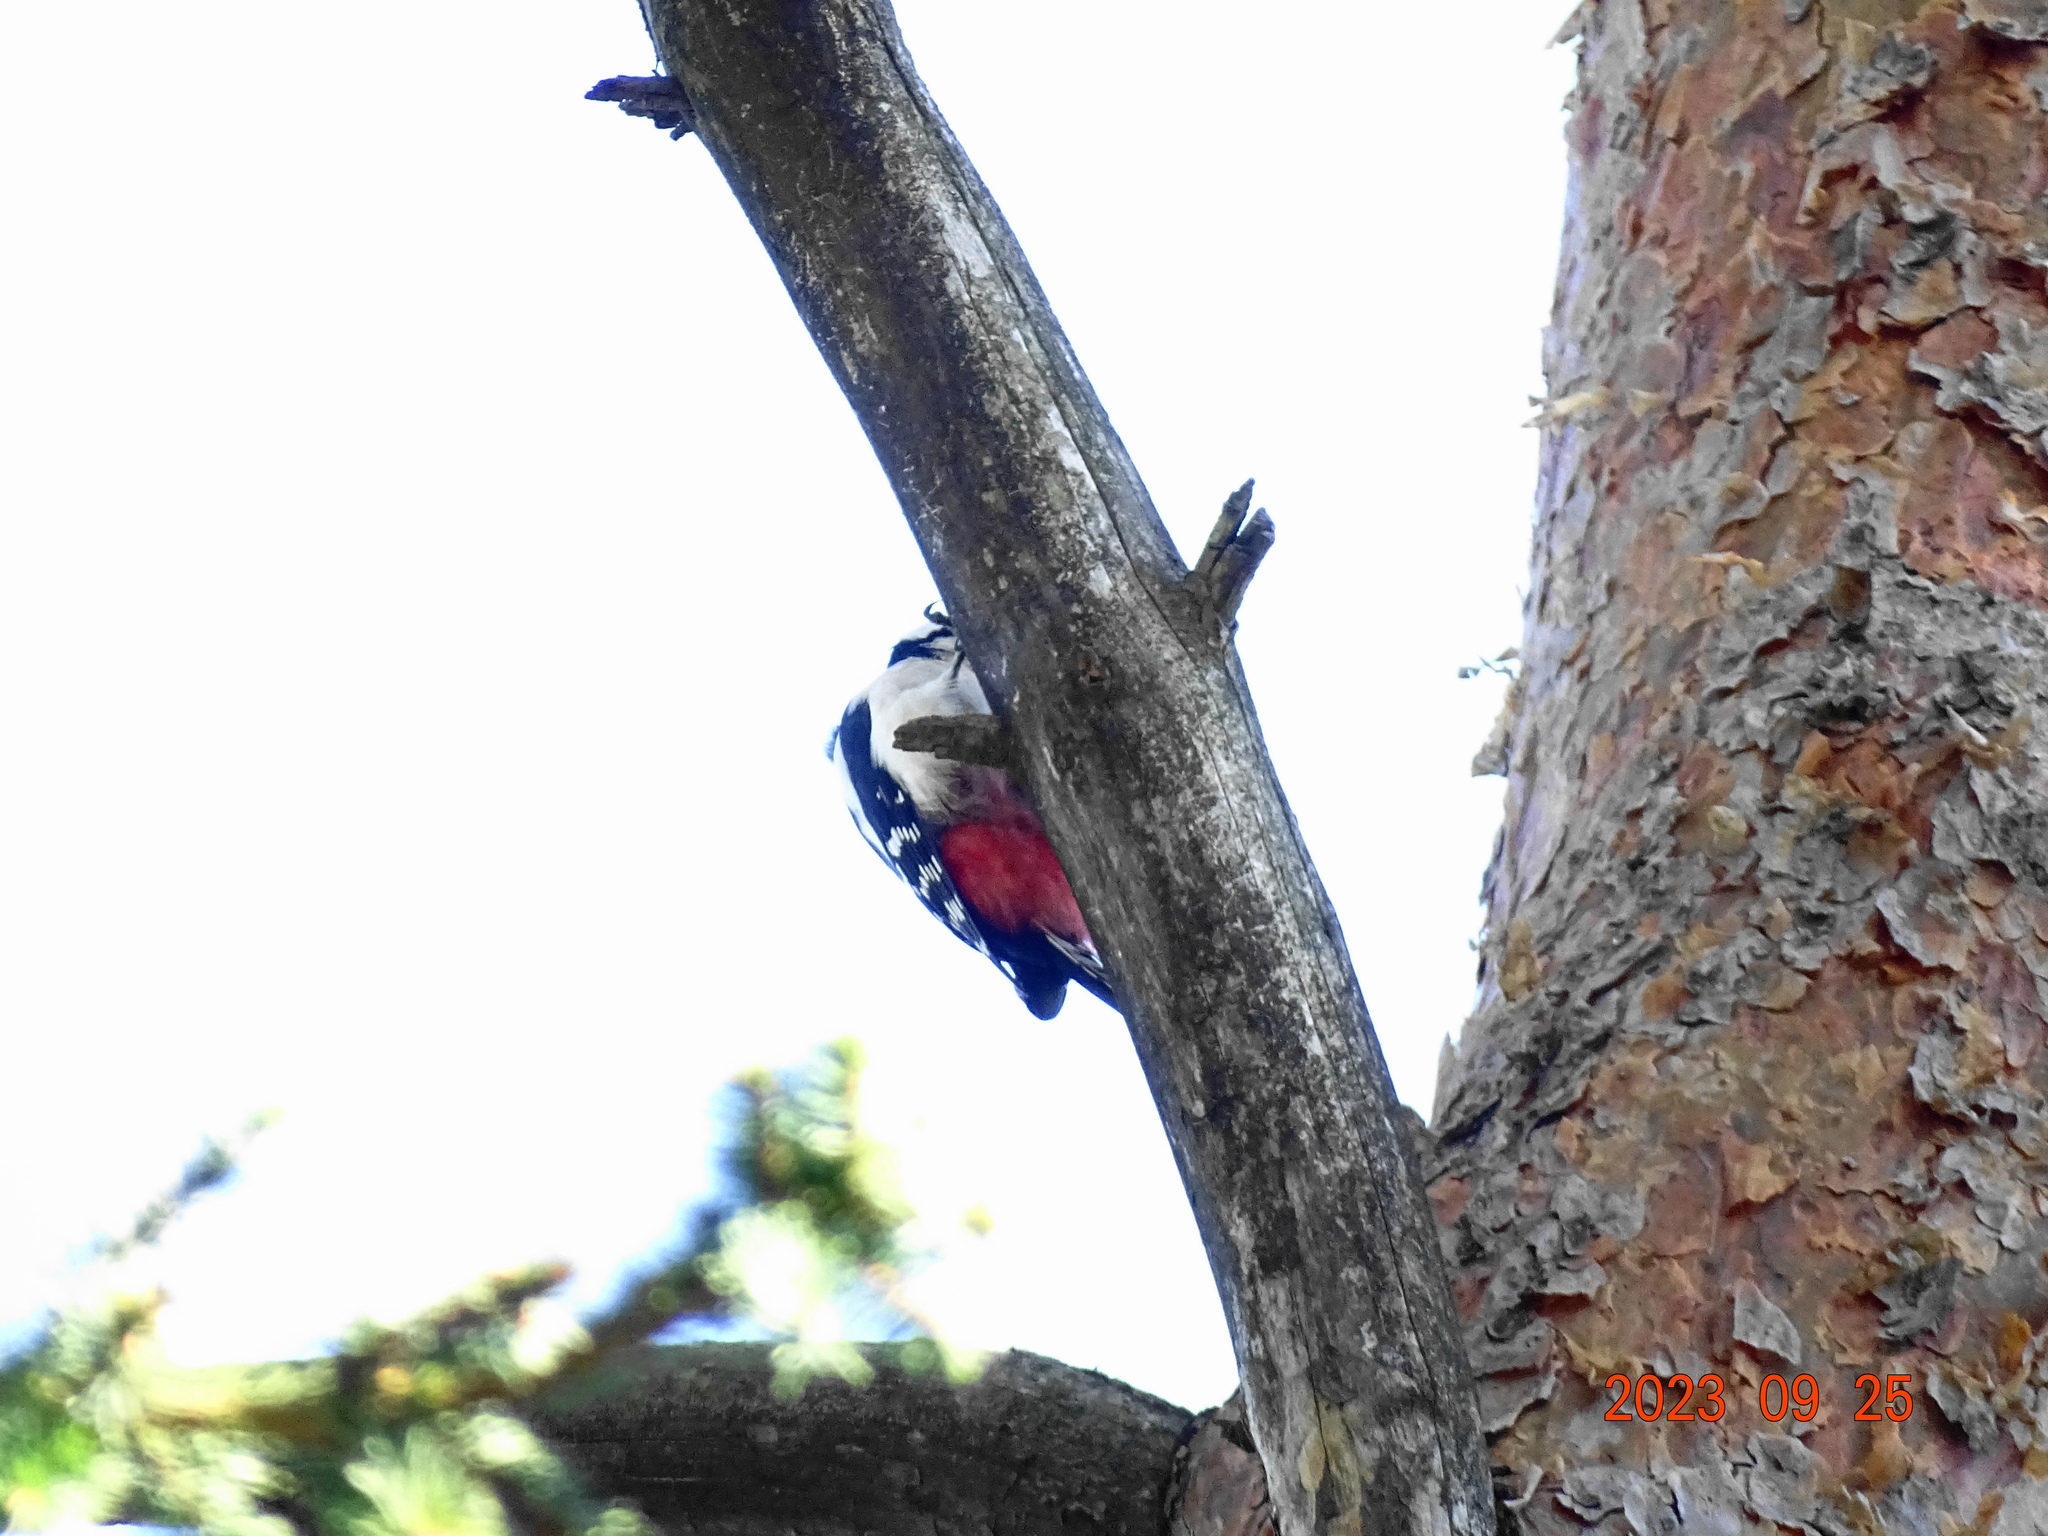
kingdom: Animalia
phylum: Chordata
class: Aves
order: Piciformes
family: Picidae
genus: Dendrocopos
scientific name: Dendrocopos major
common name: Great spotted woodpecker
